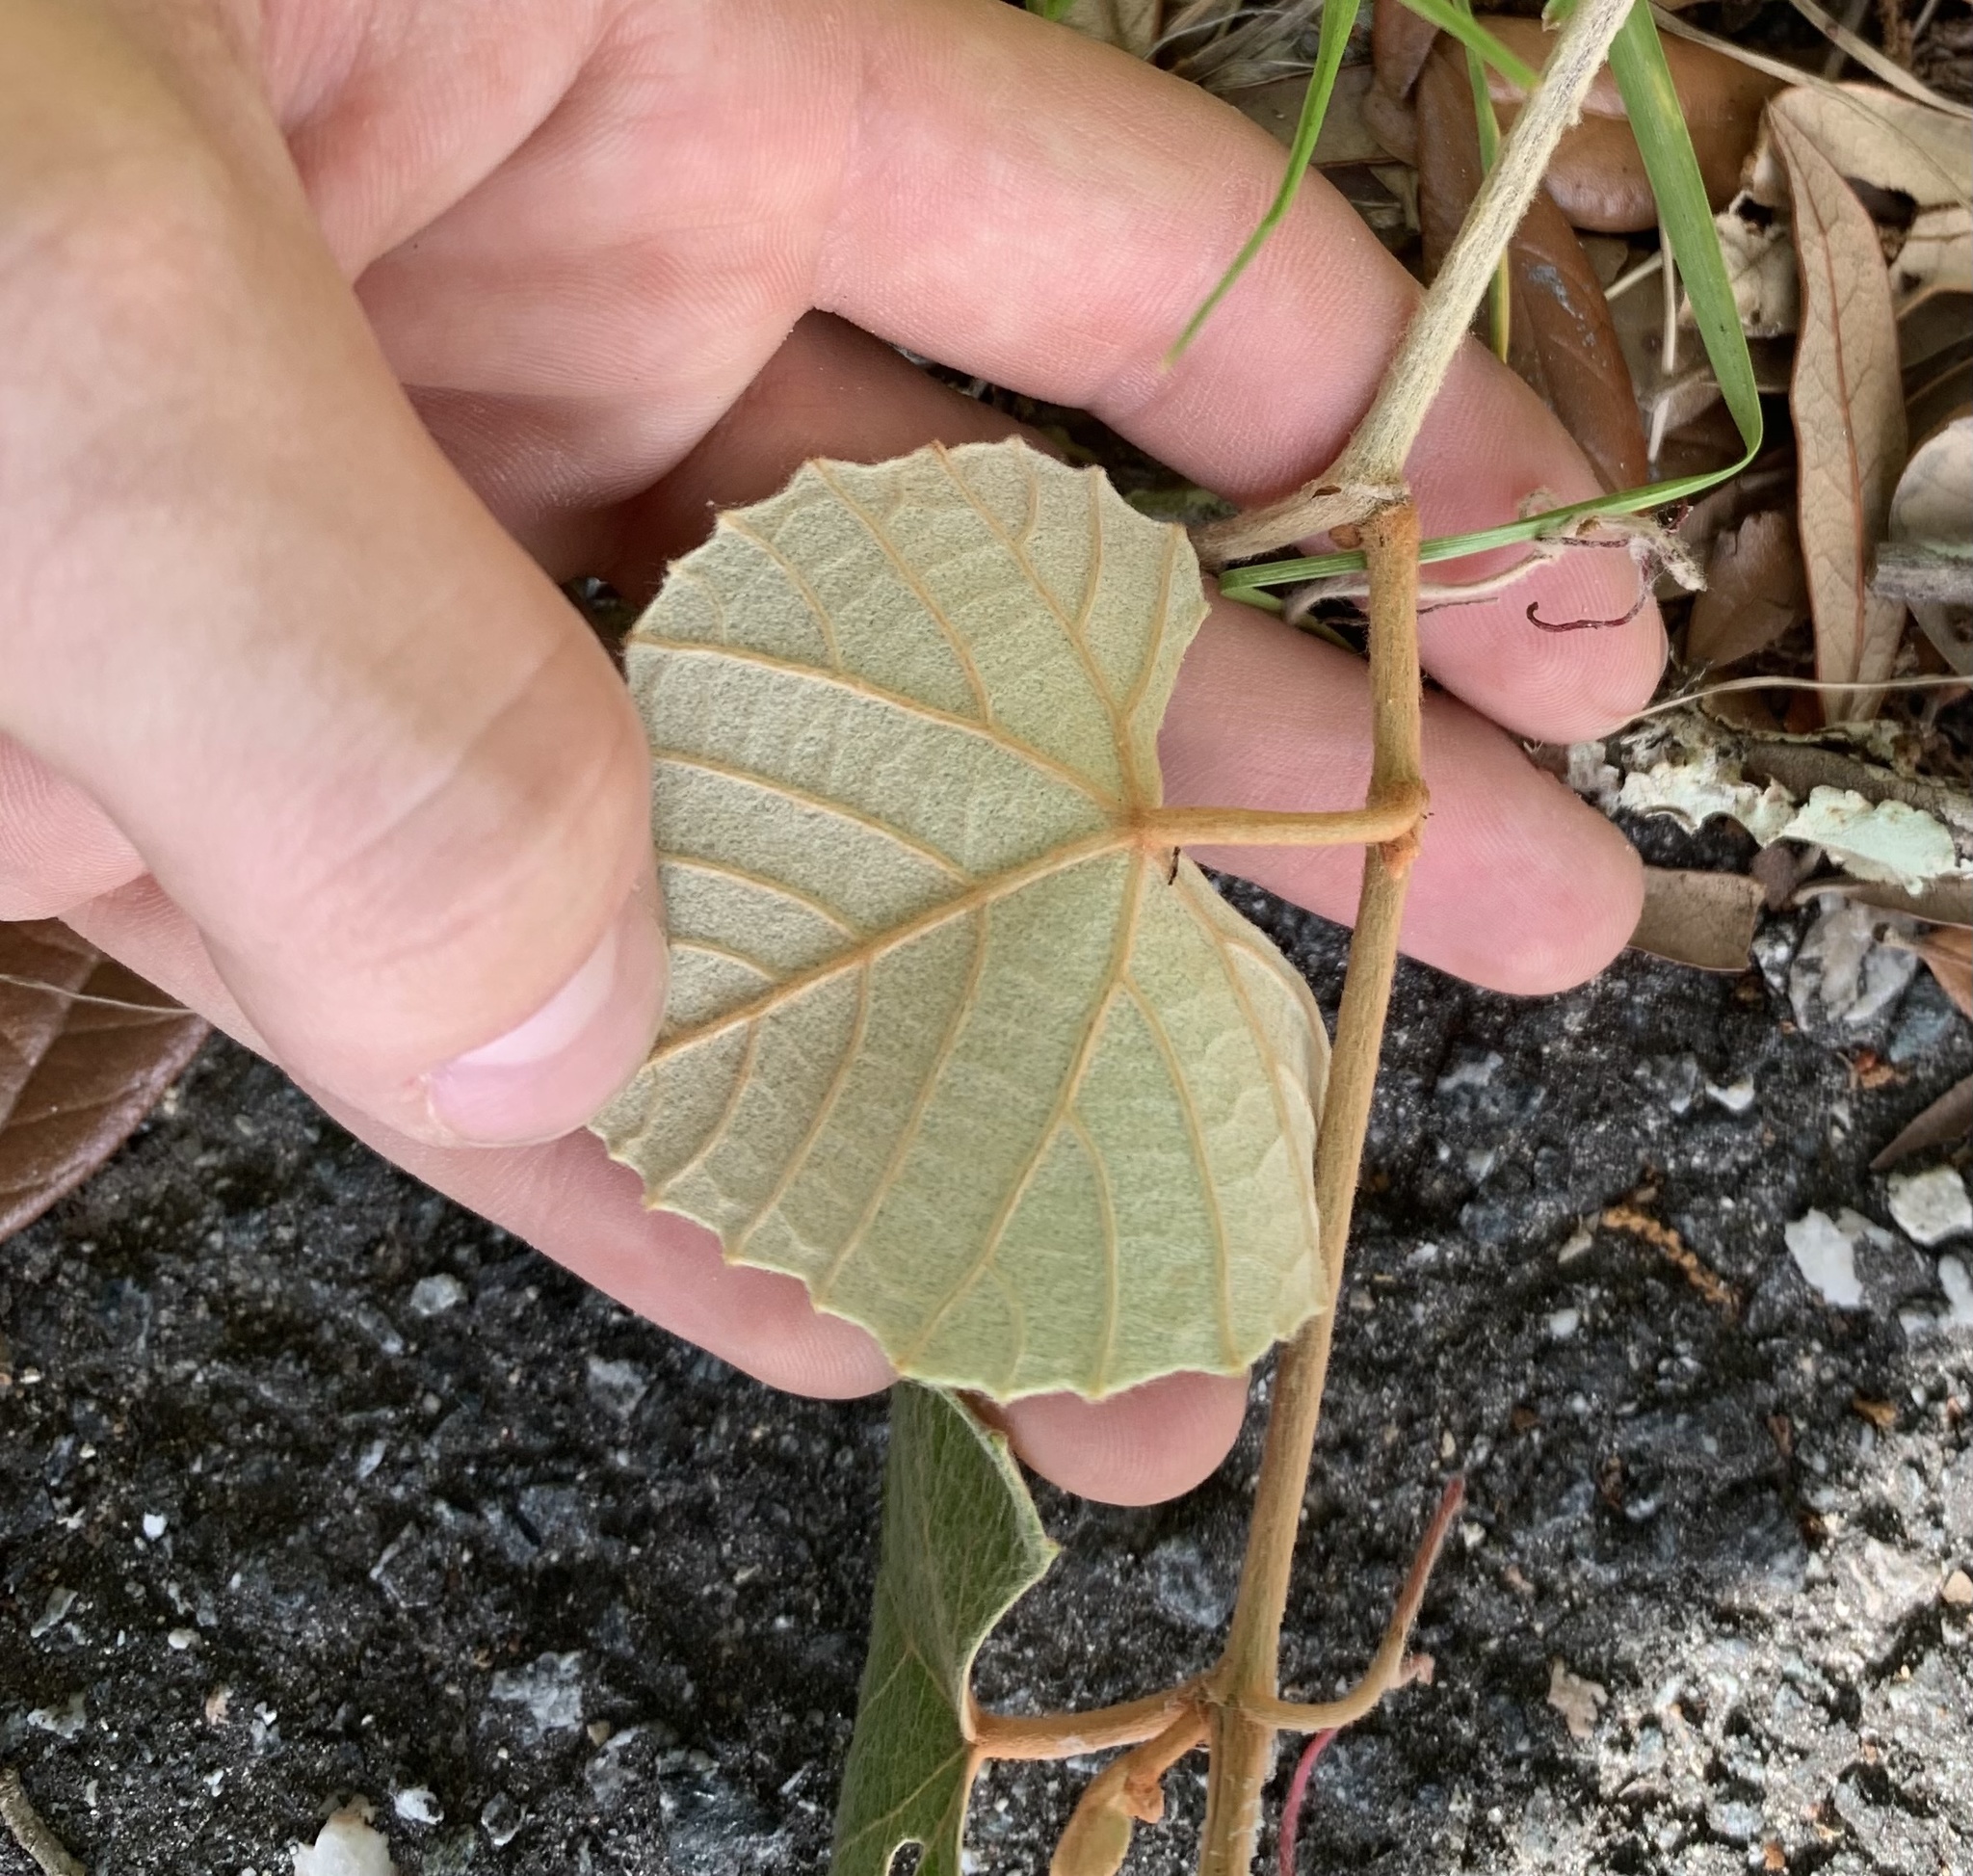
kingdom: Plantae
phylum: Tracheophyta
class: Magnoliopsida
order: Vitales
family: Vitaceae
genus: Vitis
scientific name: Vitis shuttleworthii
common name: Caloosa grape
